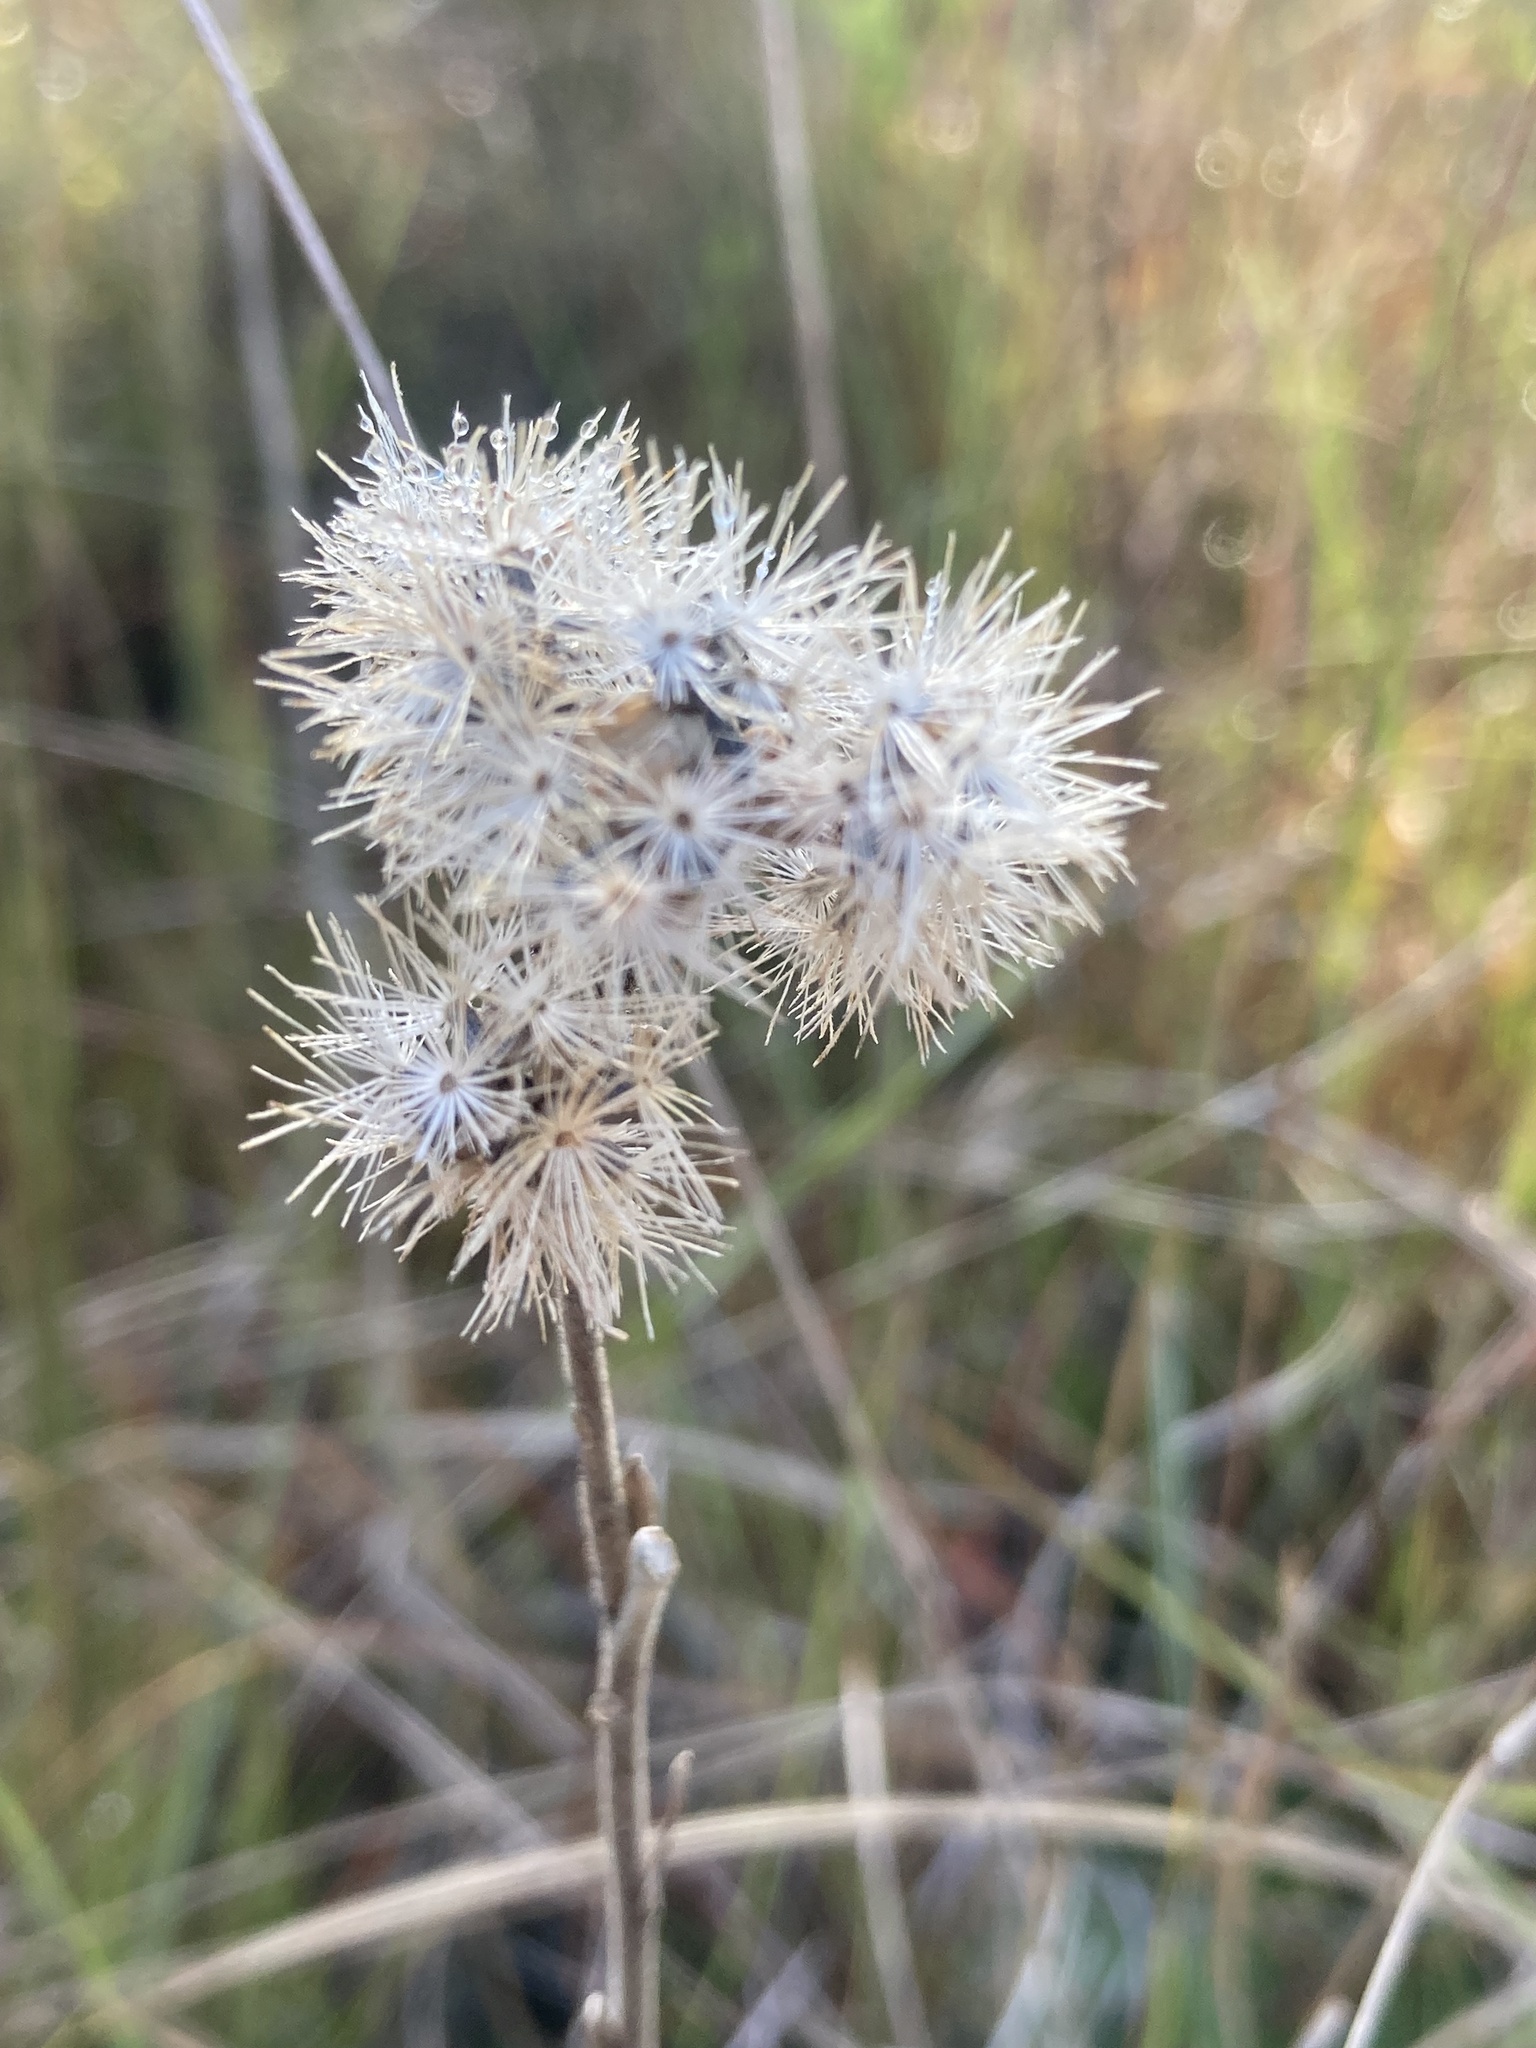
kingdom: Plantae
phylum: Tracheophyta
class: Magnoliopsida
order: Asterales
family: Asteraceae
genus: Carphephorus
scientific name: Carphephorus carnosus
